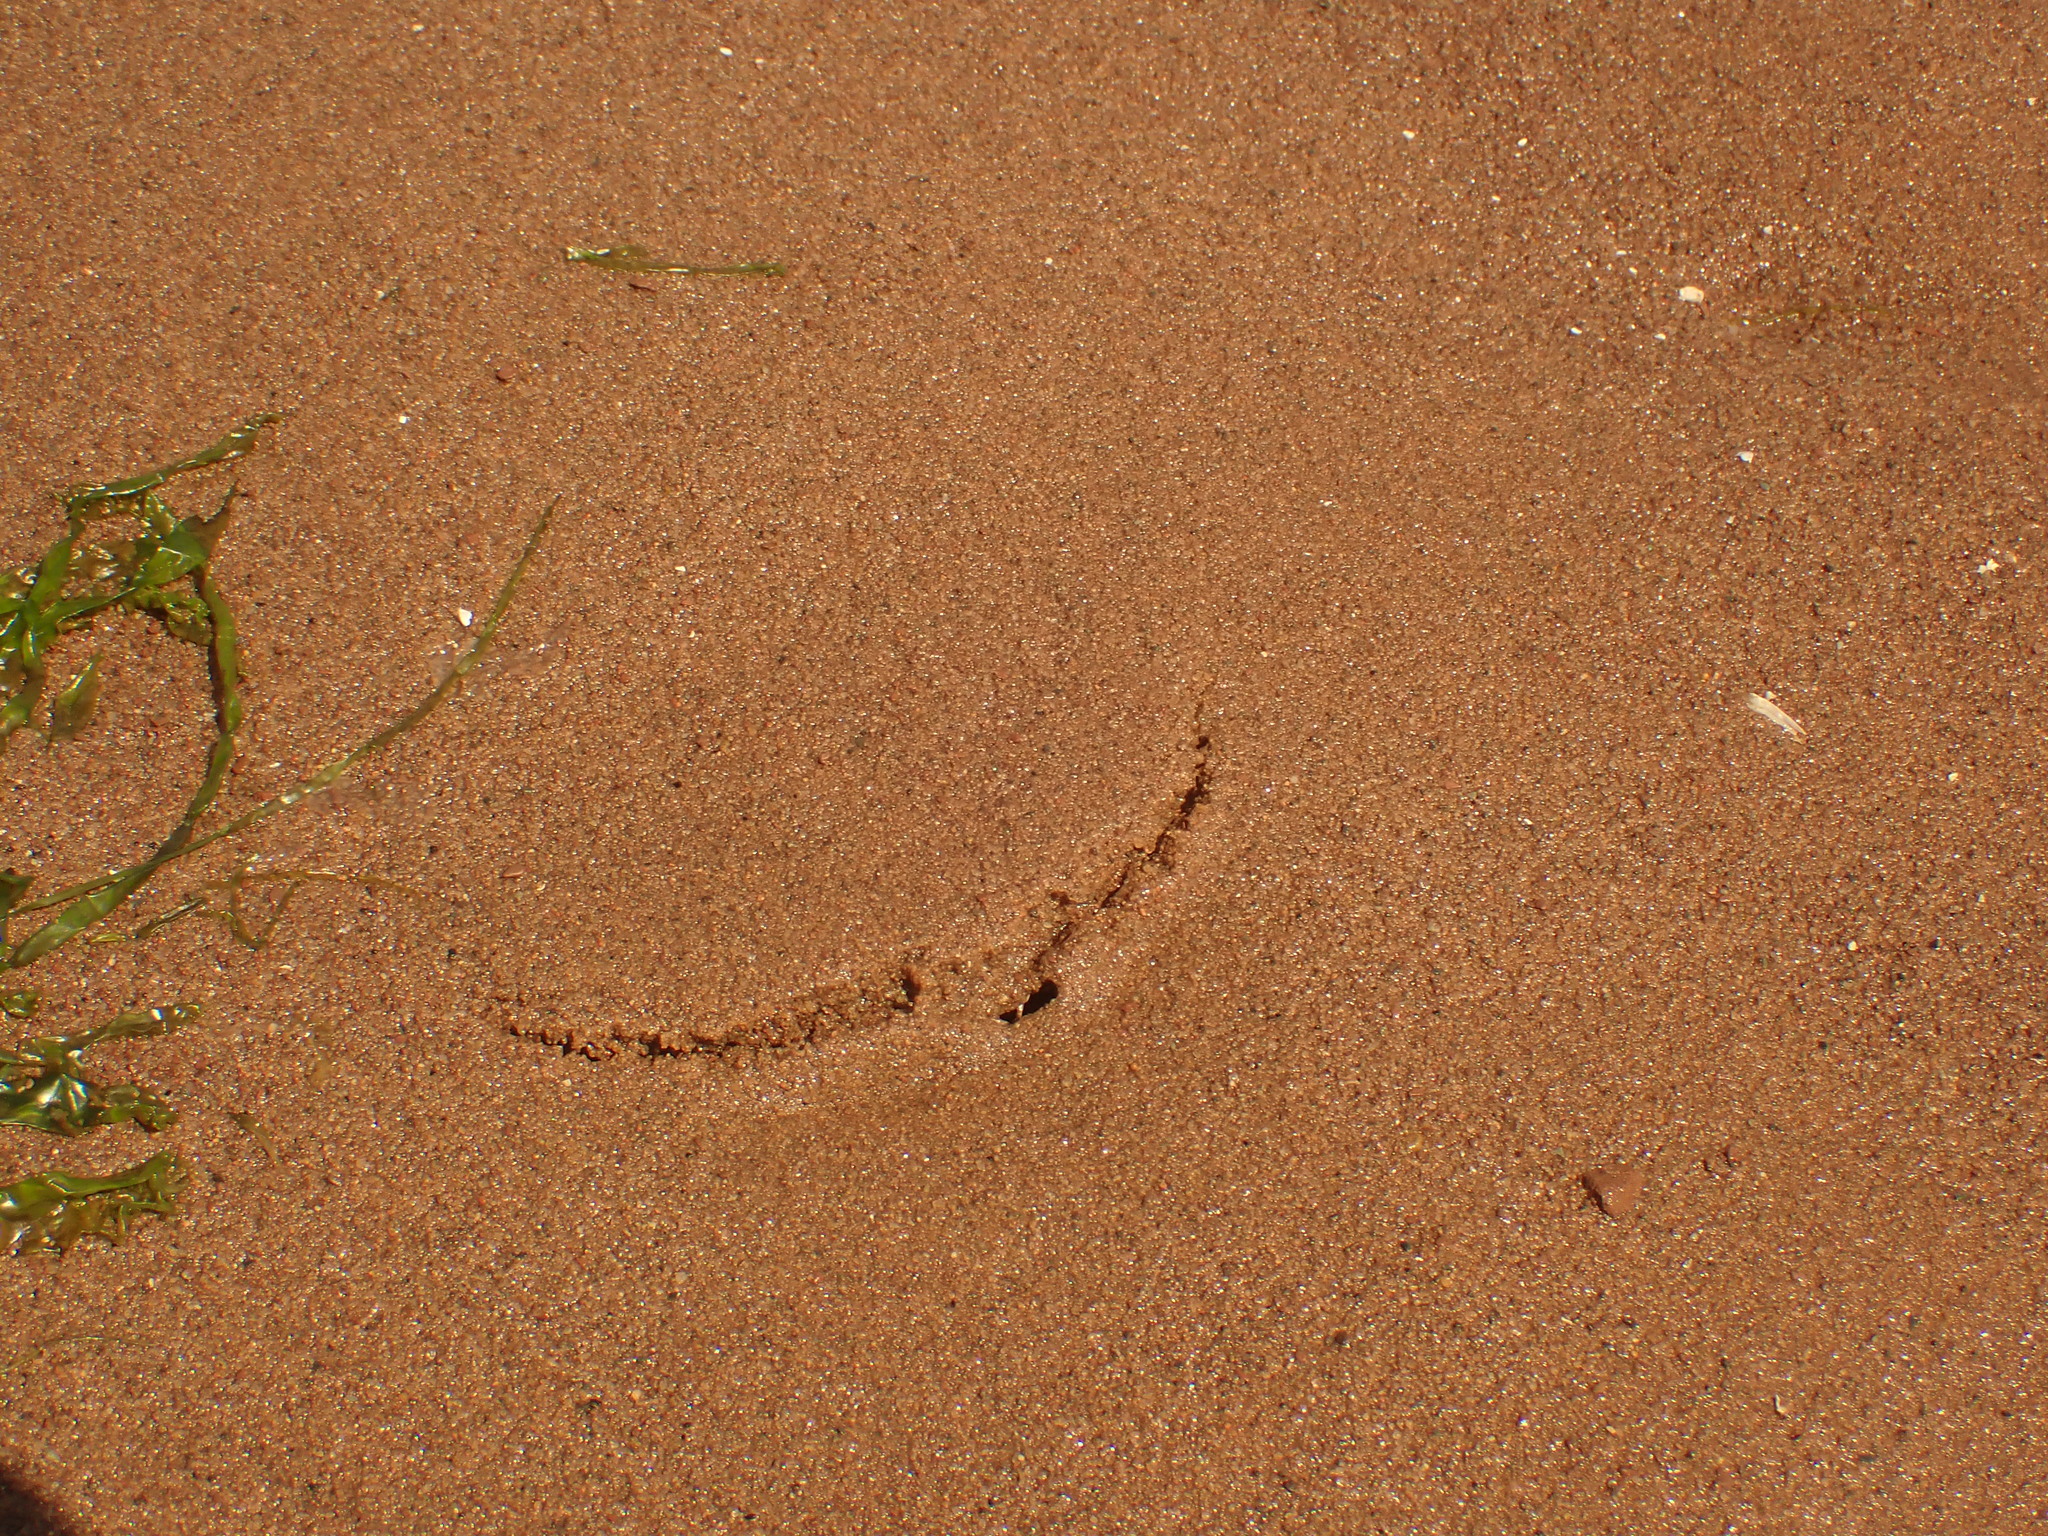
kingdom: Animalia
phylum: Arthropoda
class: Malacostraca
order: Decapoda
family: Cancridae
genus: Cancer
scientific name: Cancer irroratus
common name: Atlantic rock crab
